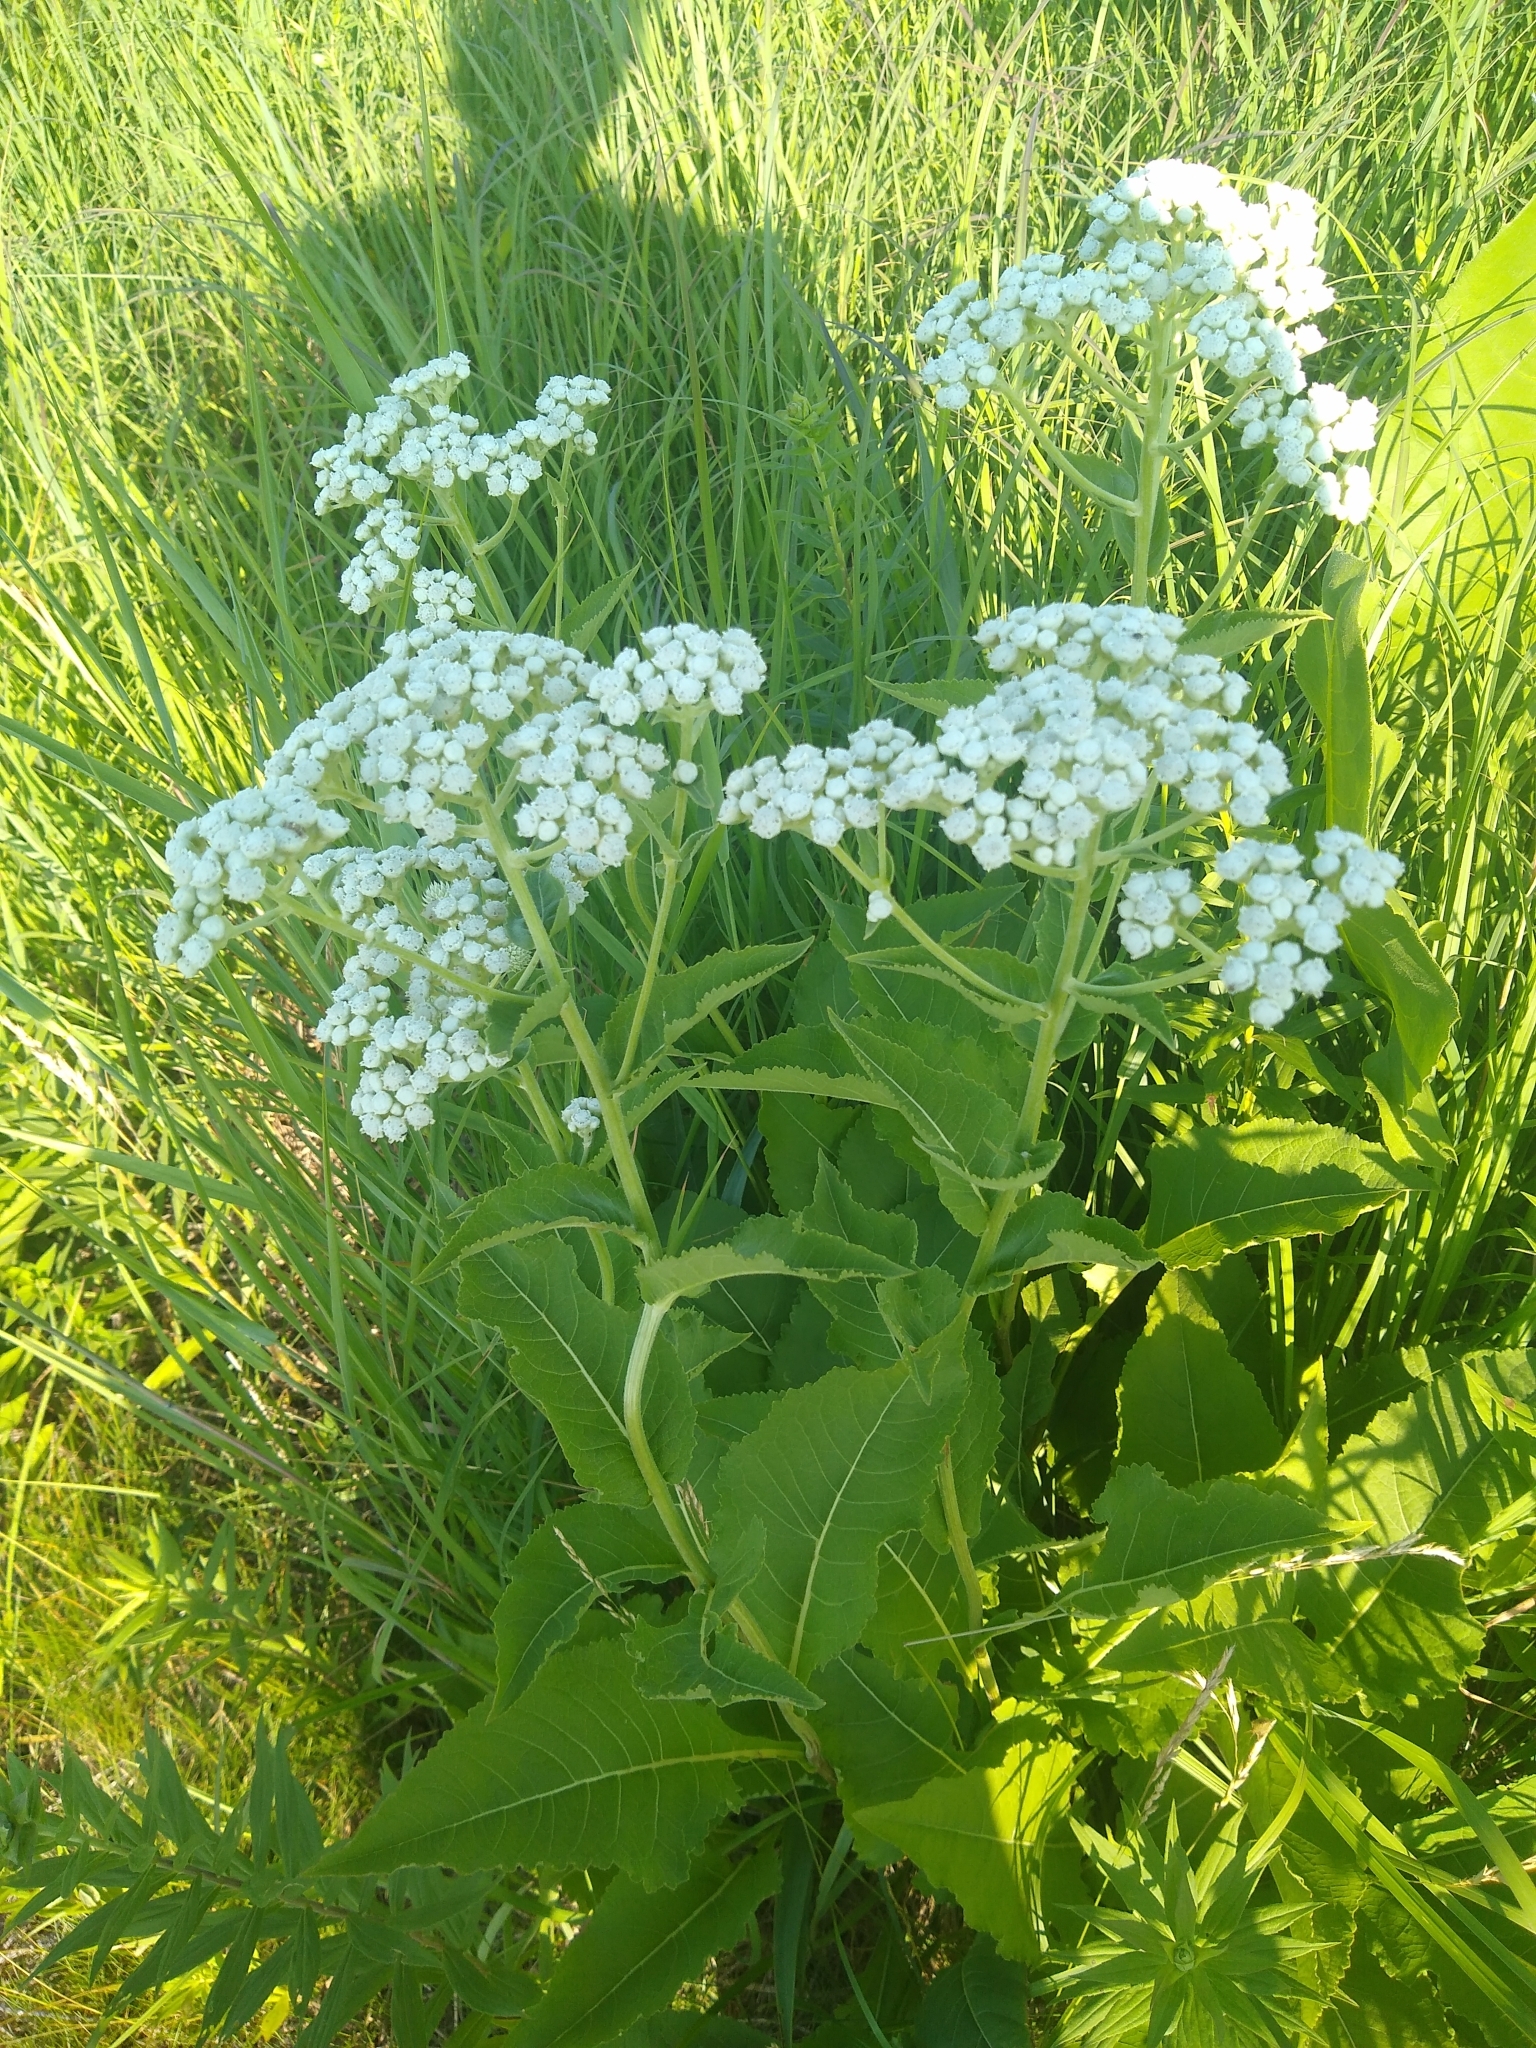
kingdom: Plantae
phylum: Tracheophyta
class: Magnoliopsida
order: Asterales
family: Asteraceae
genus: Parthenium
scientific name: Parthenium integrifolium
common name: American feverfew
